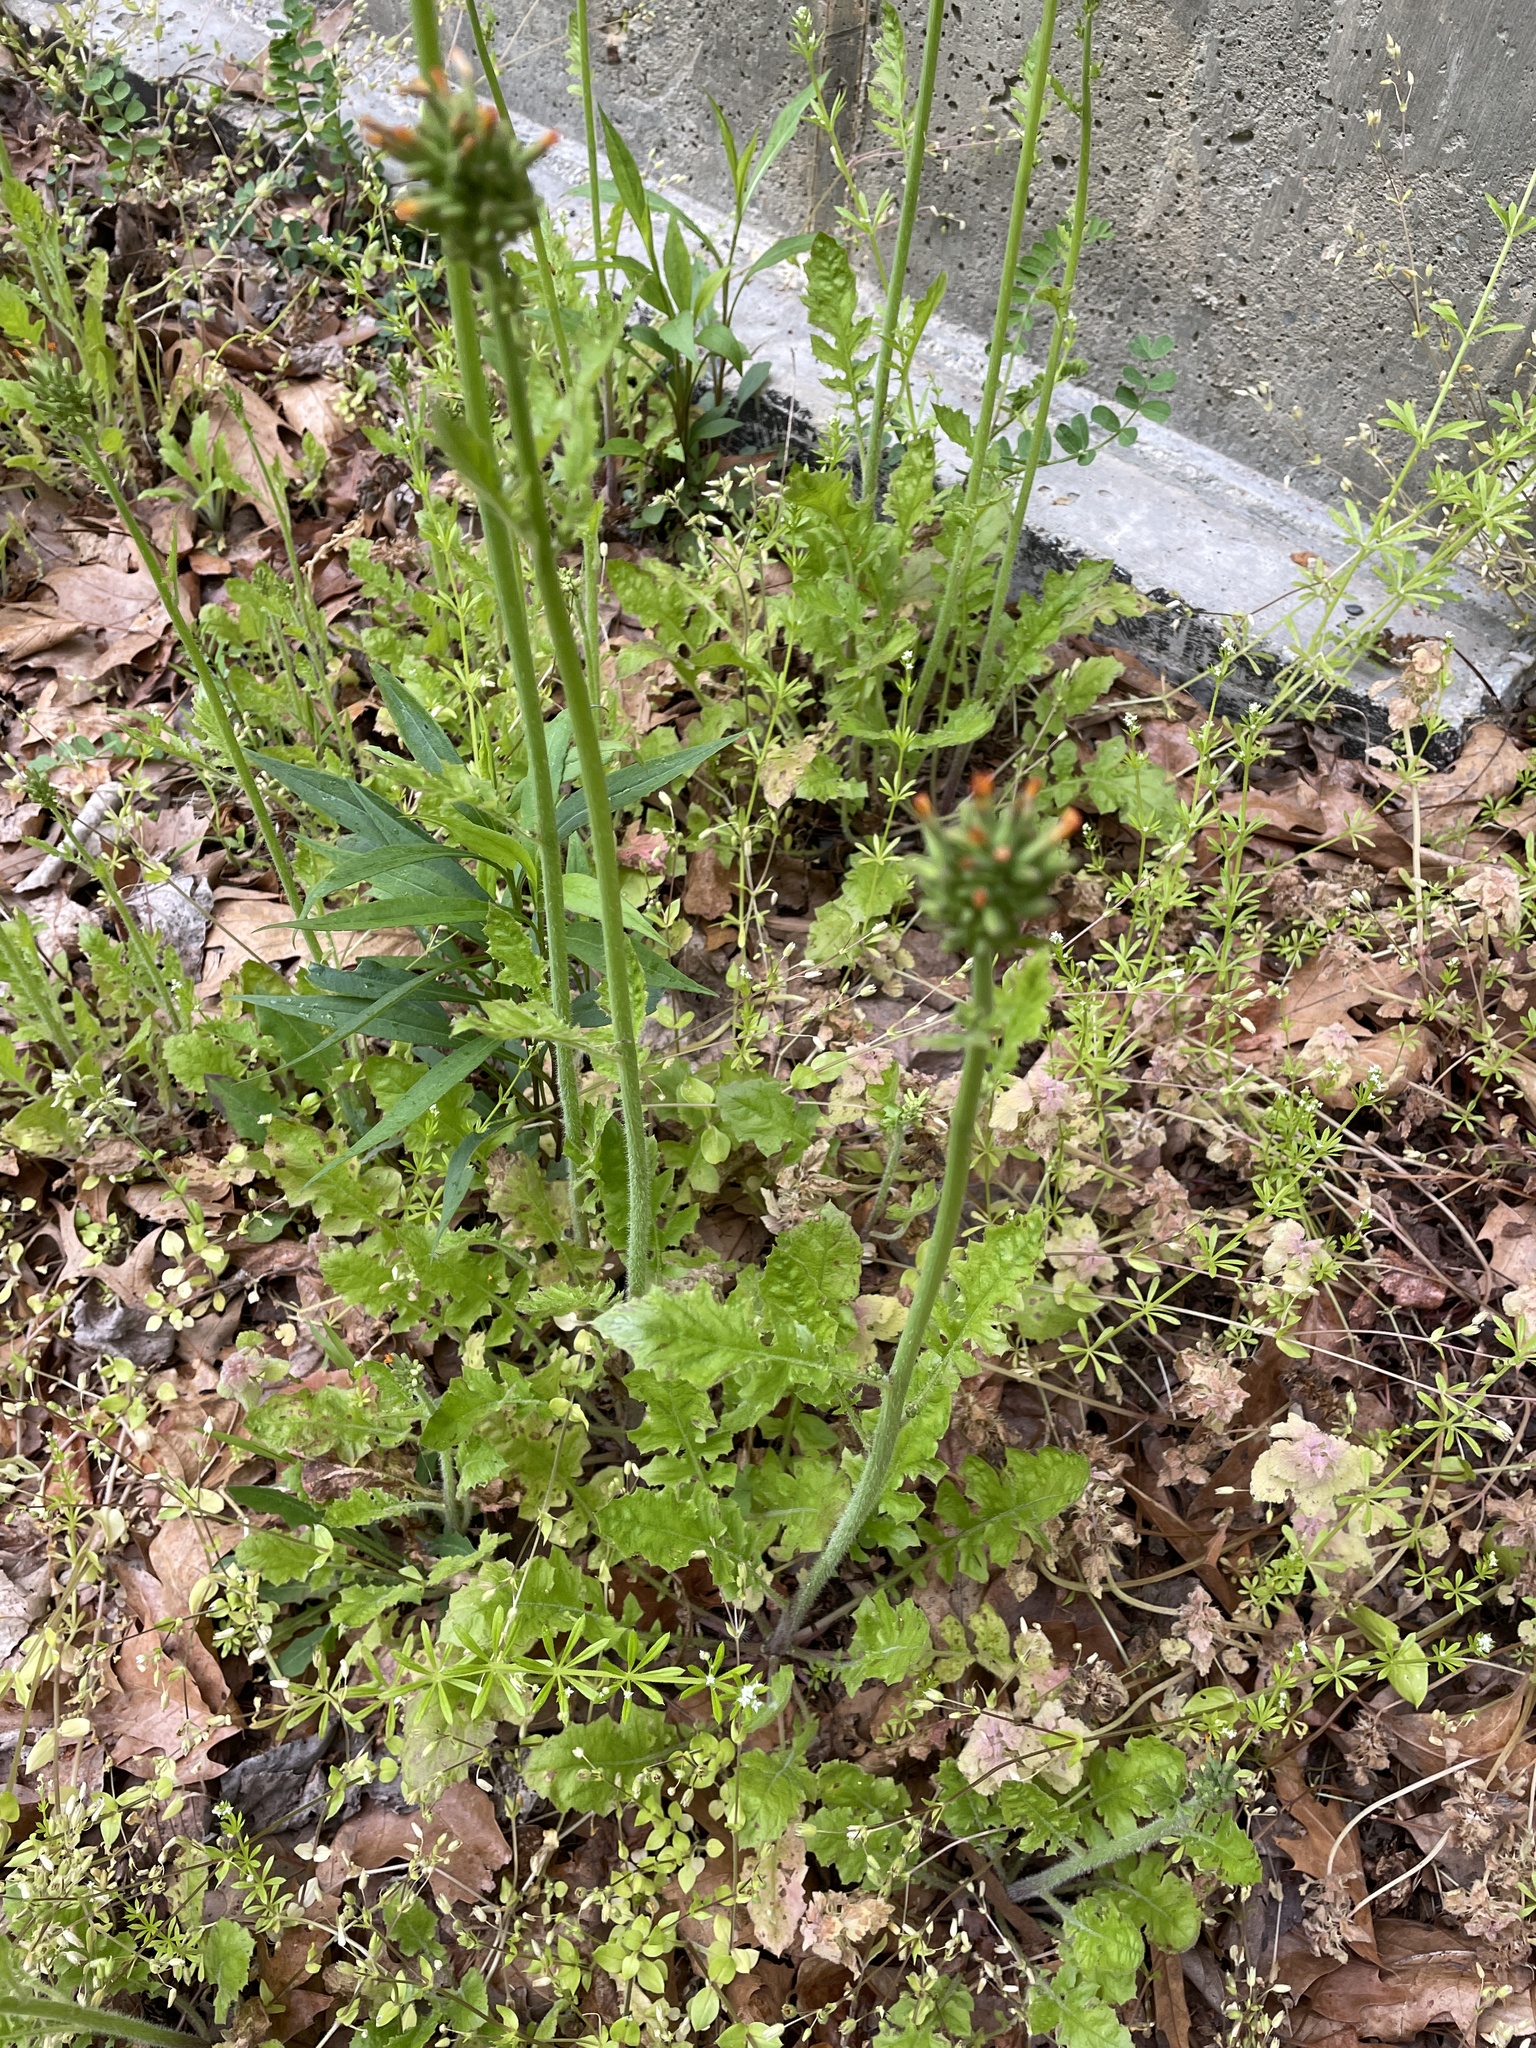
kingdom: Plantae
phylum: Tracheophyta
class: Magnoliopsida
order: Asterales
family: Asteraceae
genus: Youngia
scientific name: Youngia japonica
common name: Oriental false hawksbeard
